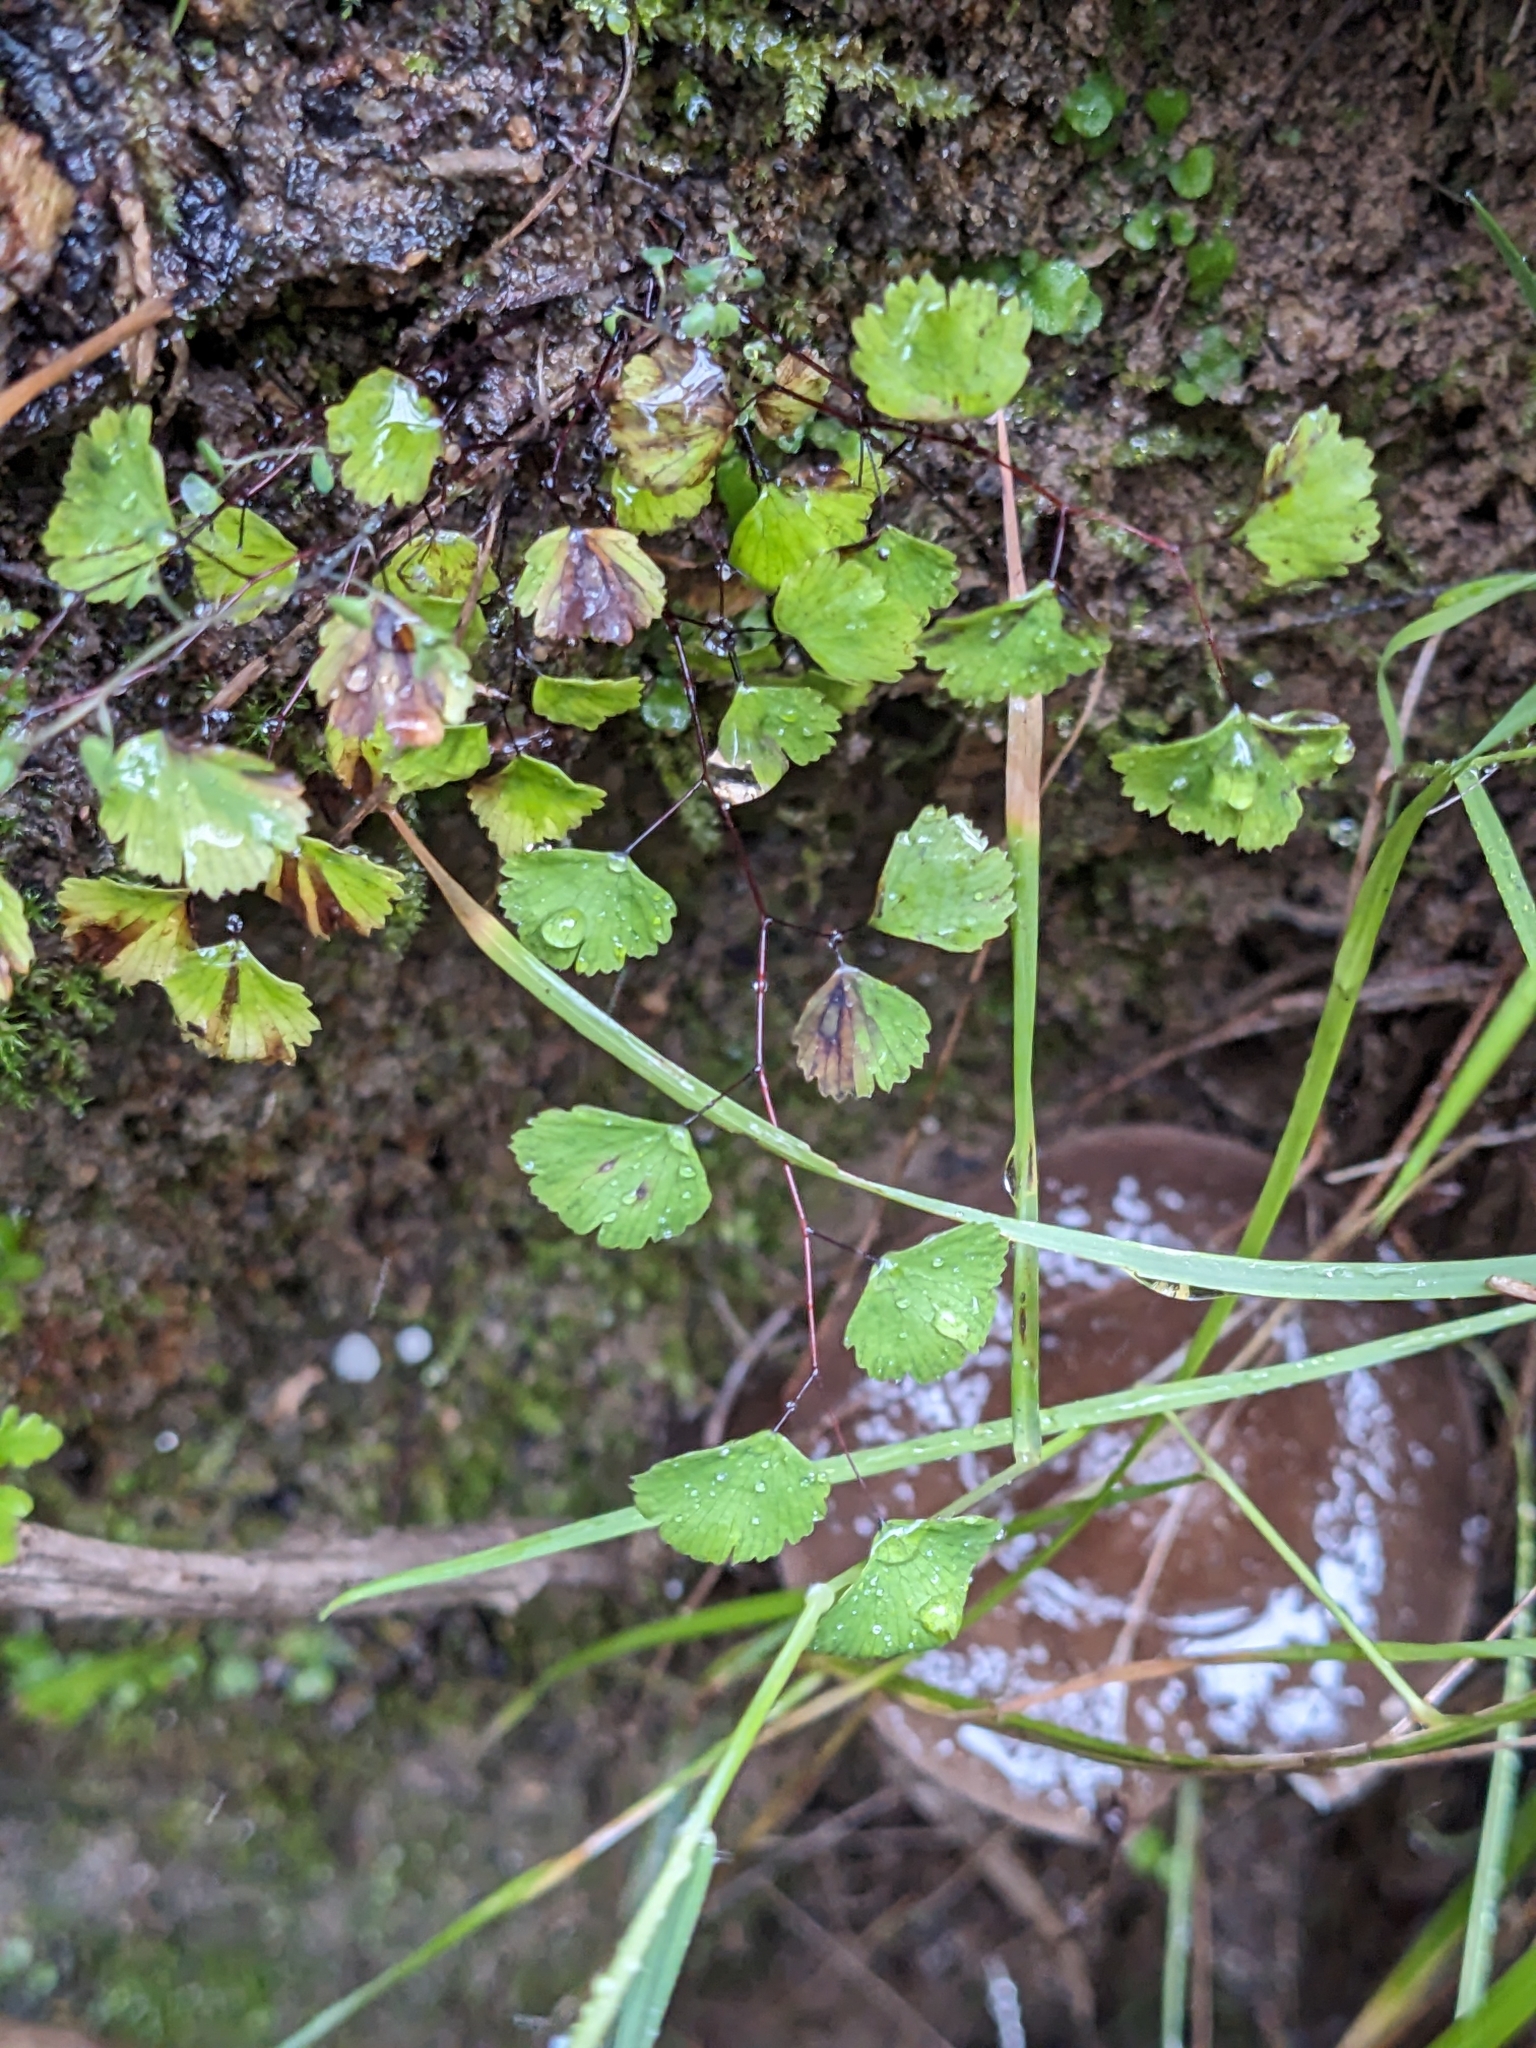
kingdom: Plantae
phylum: Tracheophyta
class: Polypodiopsida
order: Polypodiales
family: Pteridaceae
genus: Adiantum
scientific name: Adiantum jordanii
